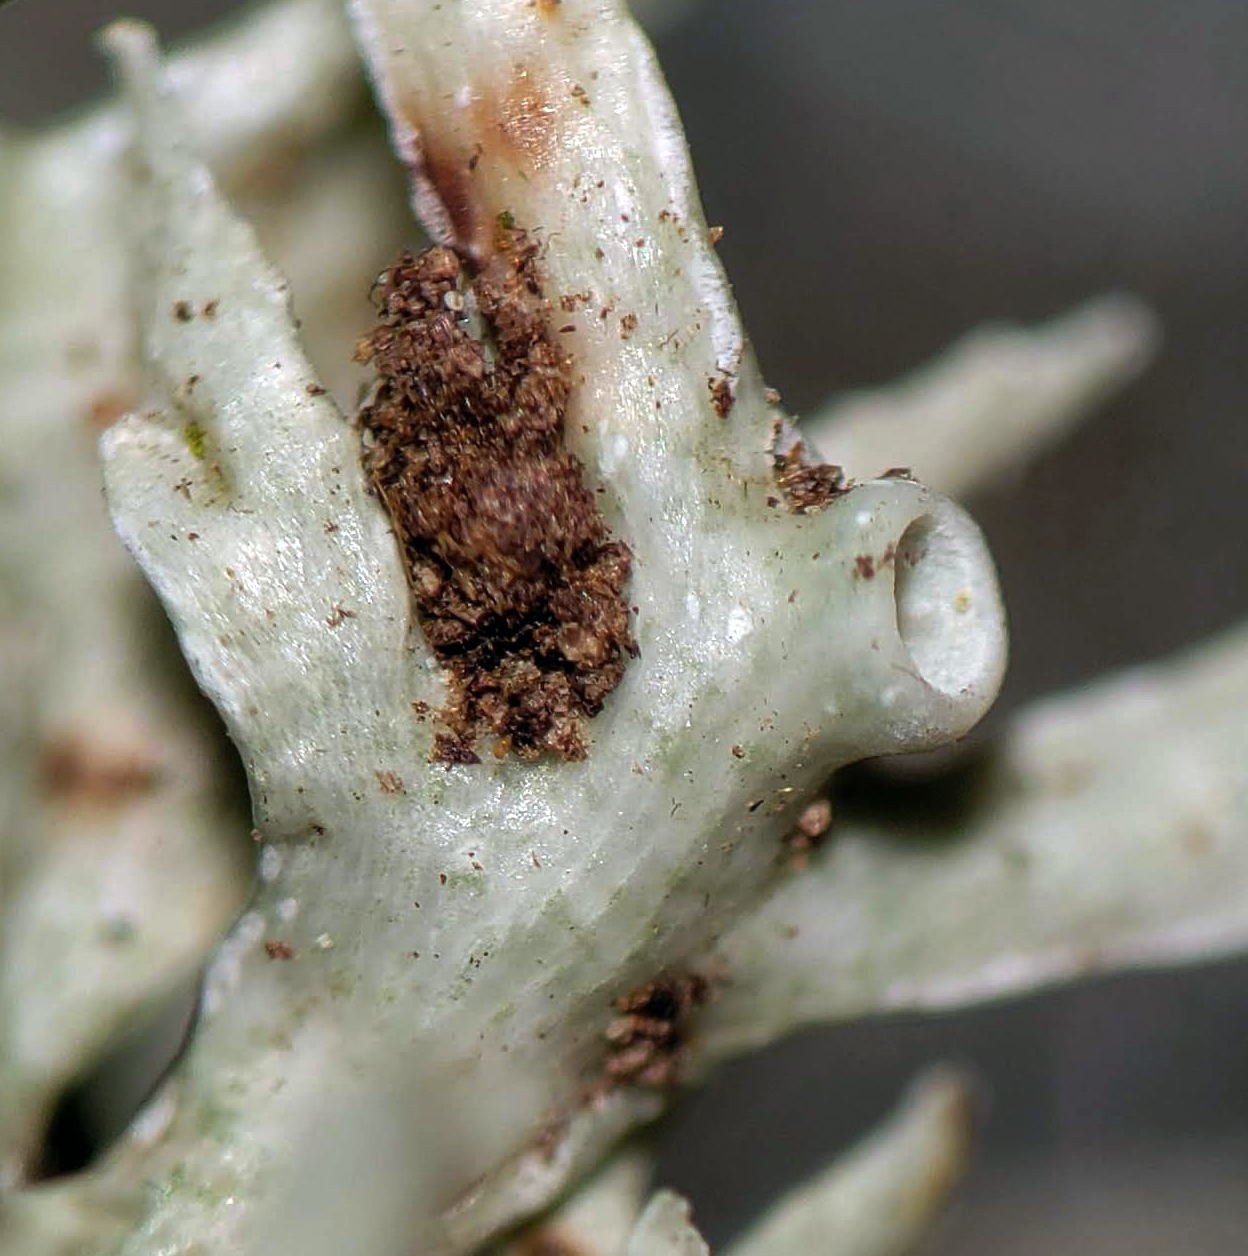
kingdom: Fungi
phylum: Ascomycota
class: Lecanoromycetes
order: Lecanorales
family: Ramalinaceae
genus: Ramalina
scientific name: Ramalina americana
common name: Sinewed bush lichen
